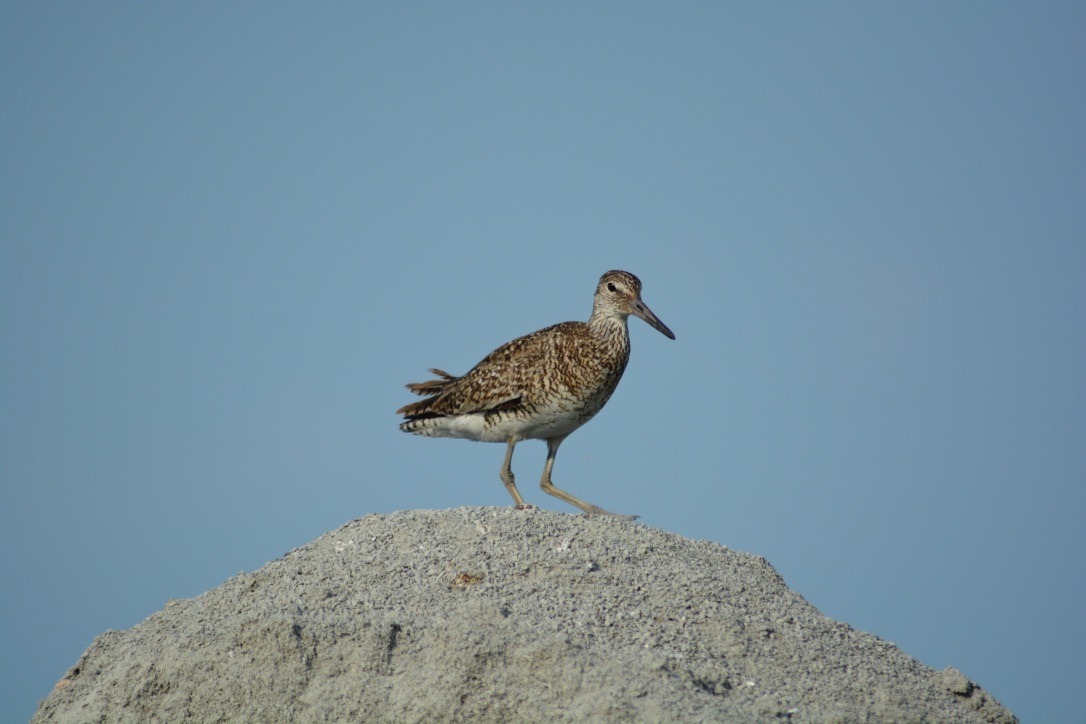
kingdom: Animalia
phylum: Chordata
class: Aves
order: Charadriiformes
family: Scolopacidae
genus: Tringa
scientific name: Tringa semipalmata
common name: Willet
